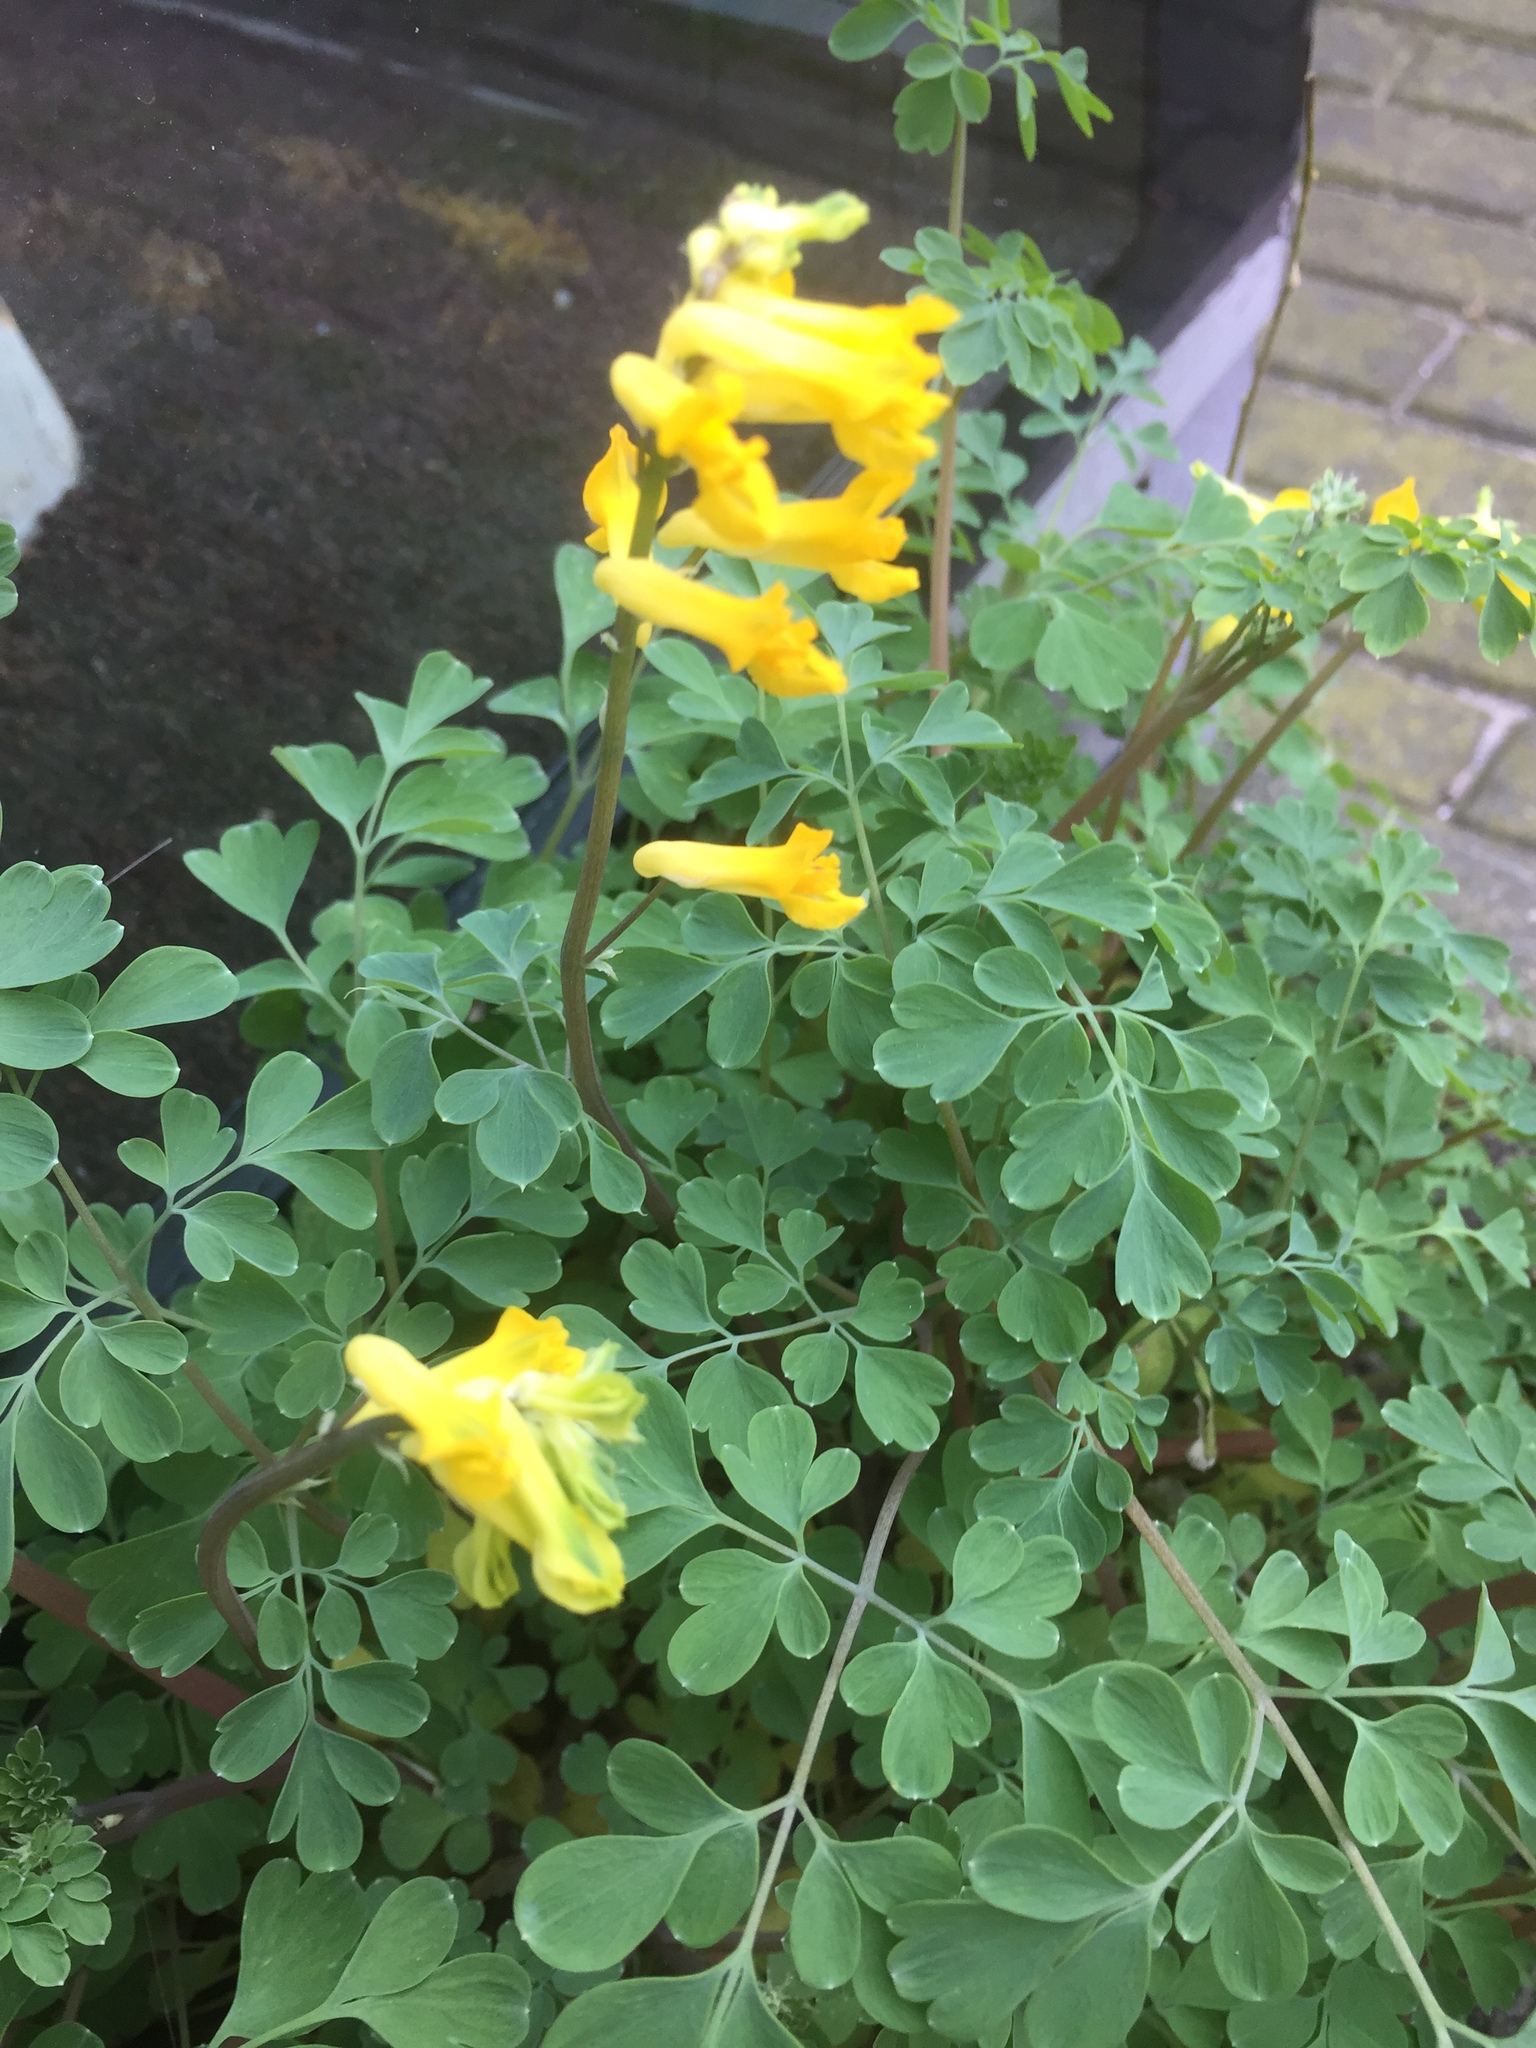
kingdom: Plantae
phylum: Tracheophyta
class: Magnoliopsida
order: Ranunculales
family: Papaveraceae
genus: Pseudofumaria
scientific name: Pseudofumaria lutea
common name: Yellow corydalis
